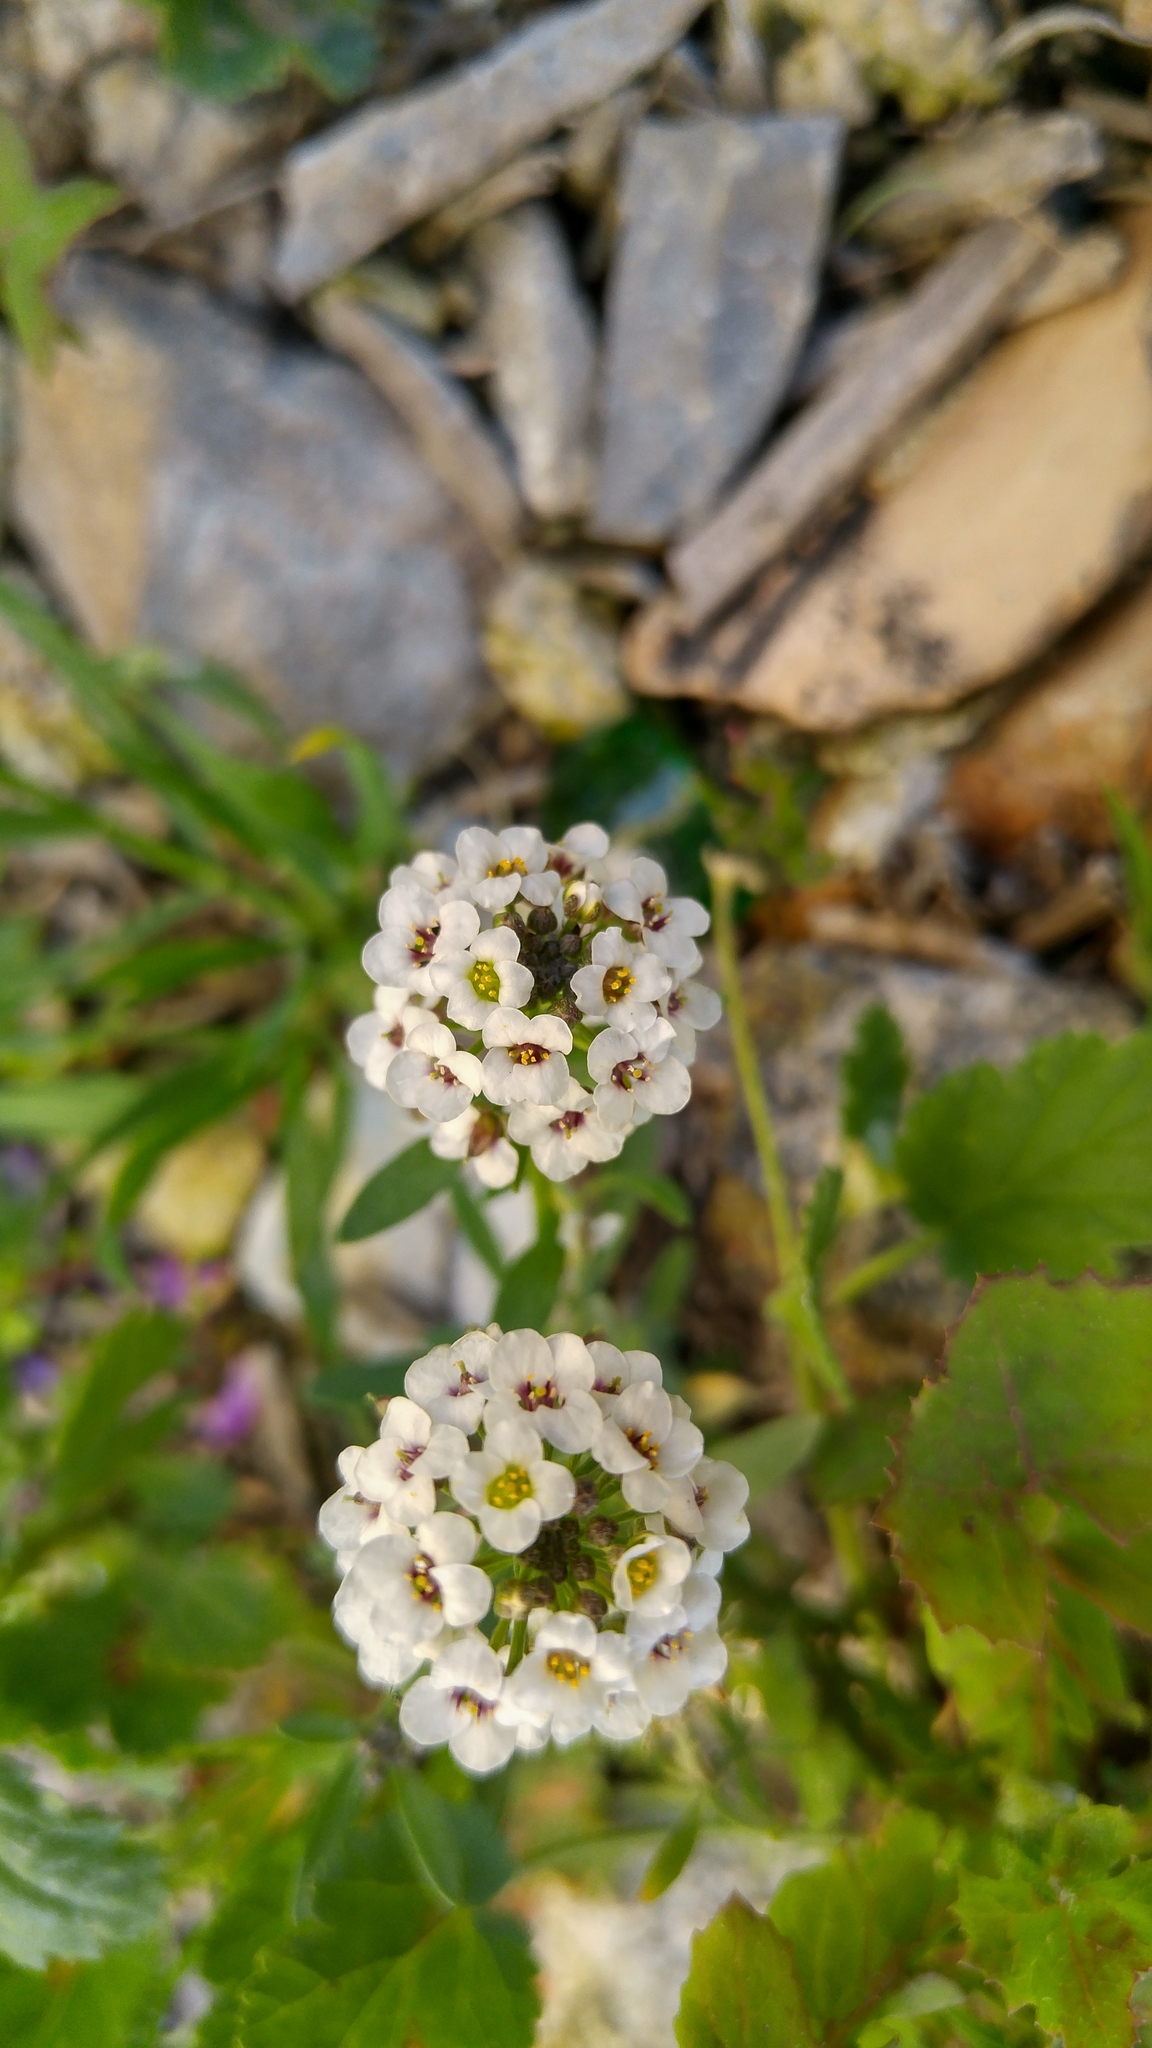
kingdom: Plantae
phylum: Tracheophyta
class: Magnoliopsida
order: Brassicales
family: Brassicaceae
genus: Lobularia
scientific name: Lobularia maritima
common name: Sweet alison
